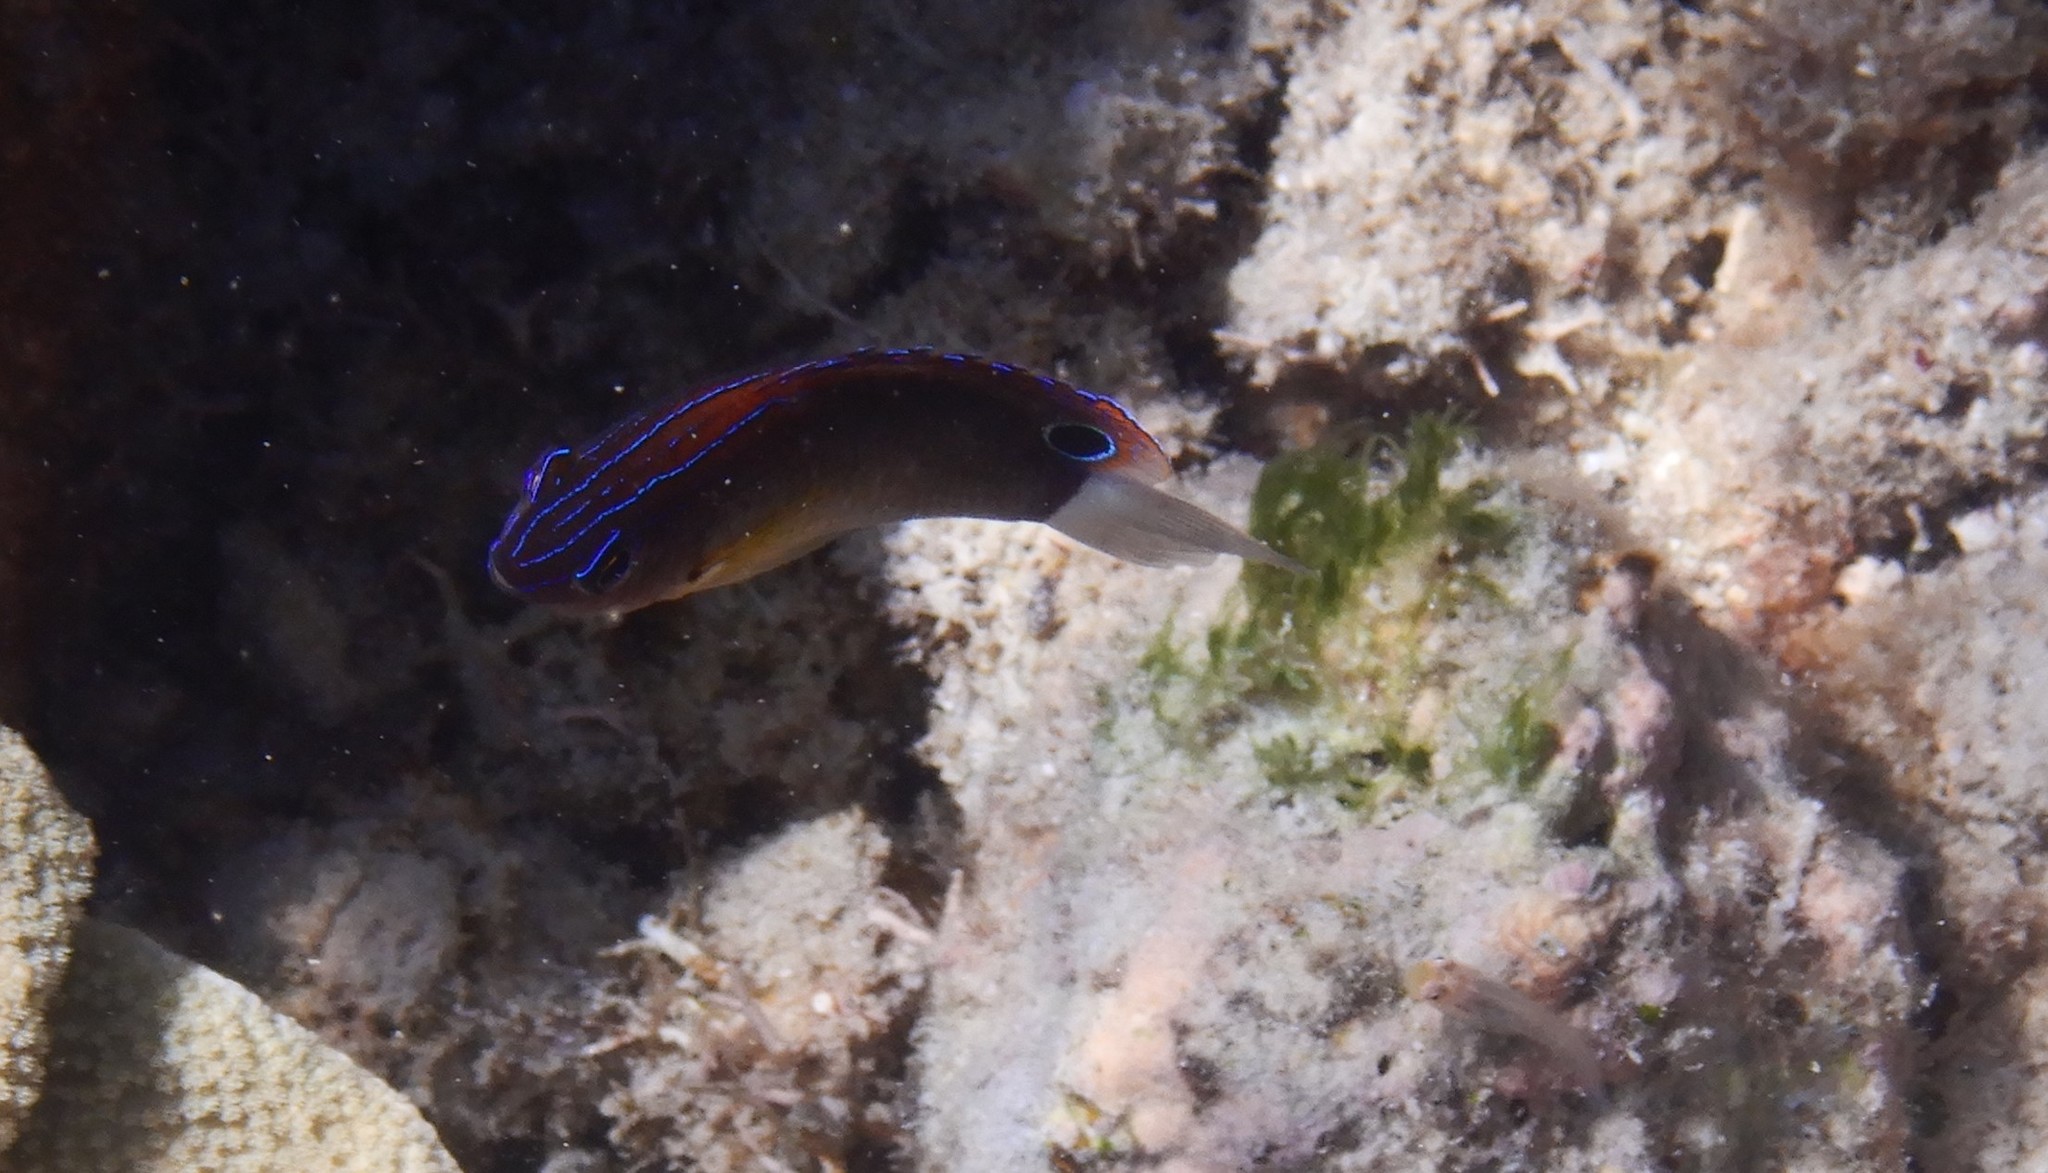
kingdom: Animalia
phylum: Chordata
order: Perciformes
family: Pomacentridae
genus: Pomacentrus
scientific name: Pomacentrus bankanensis
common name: Speckled damsel
